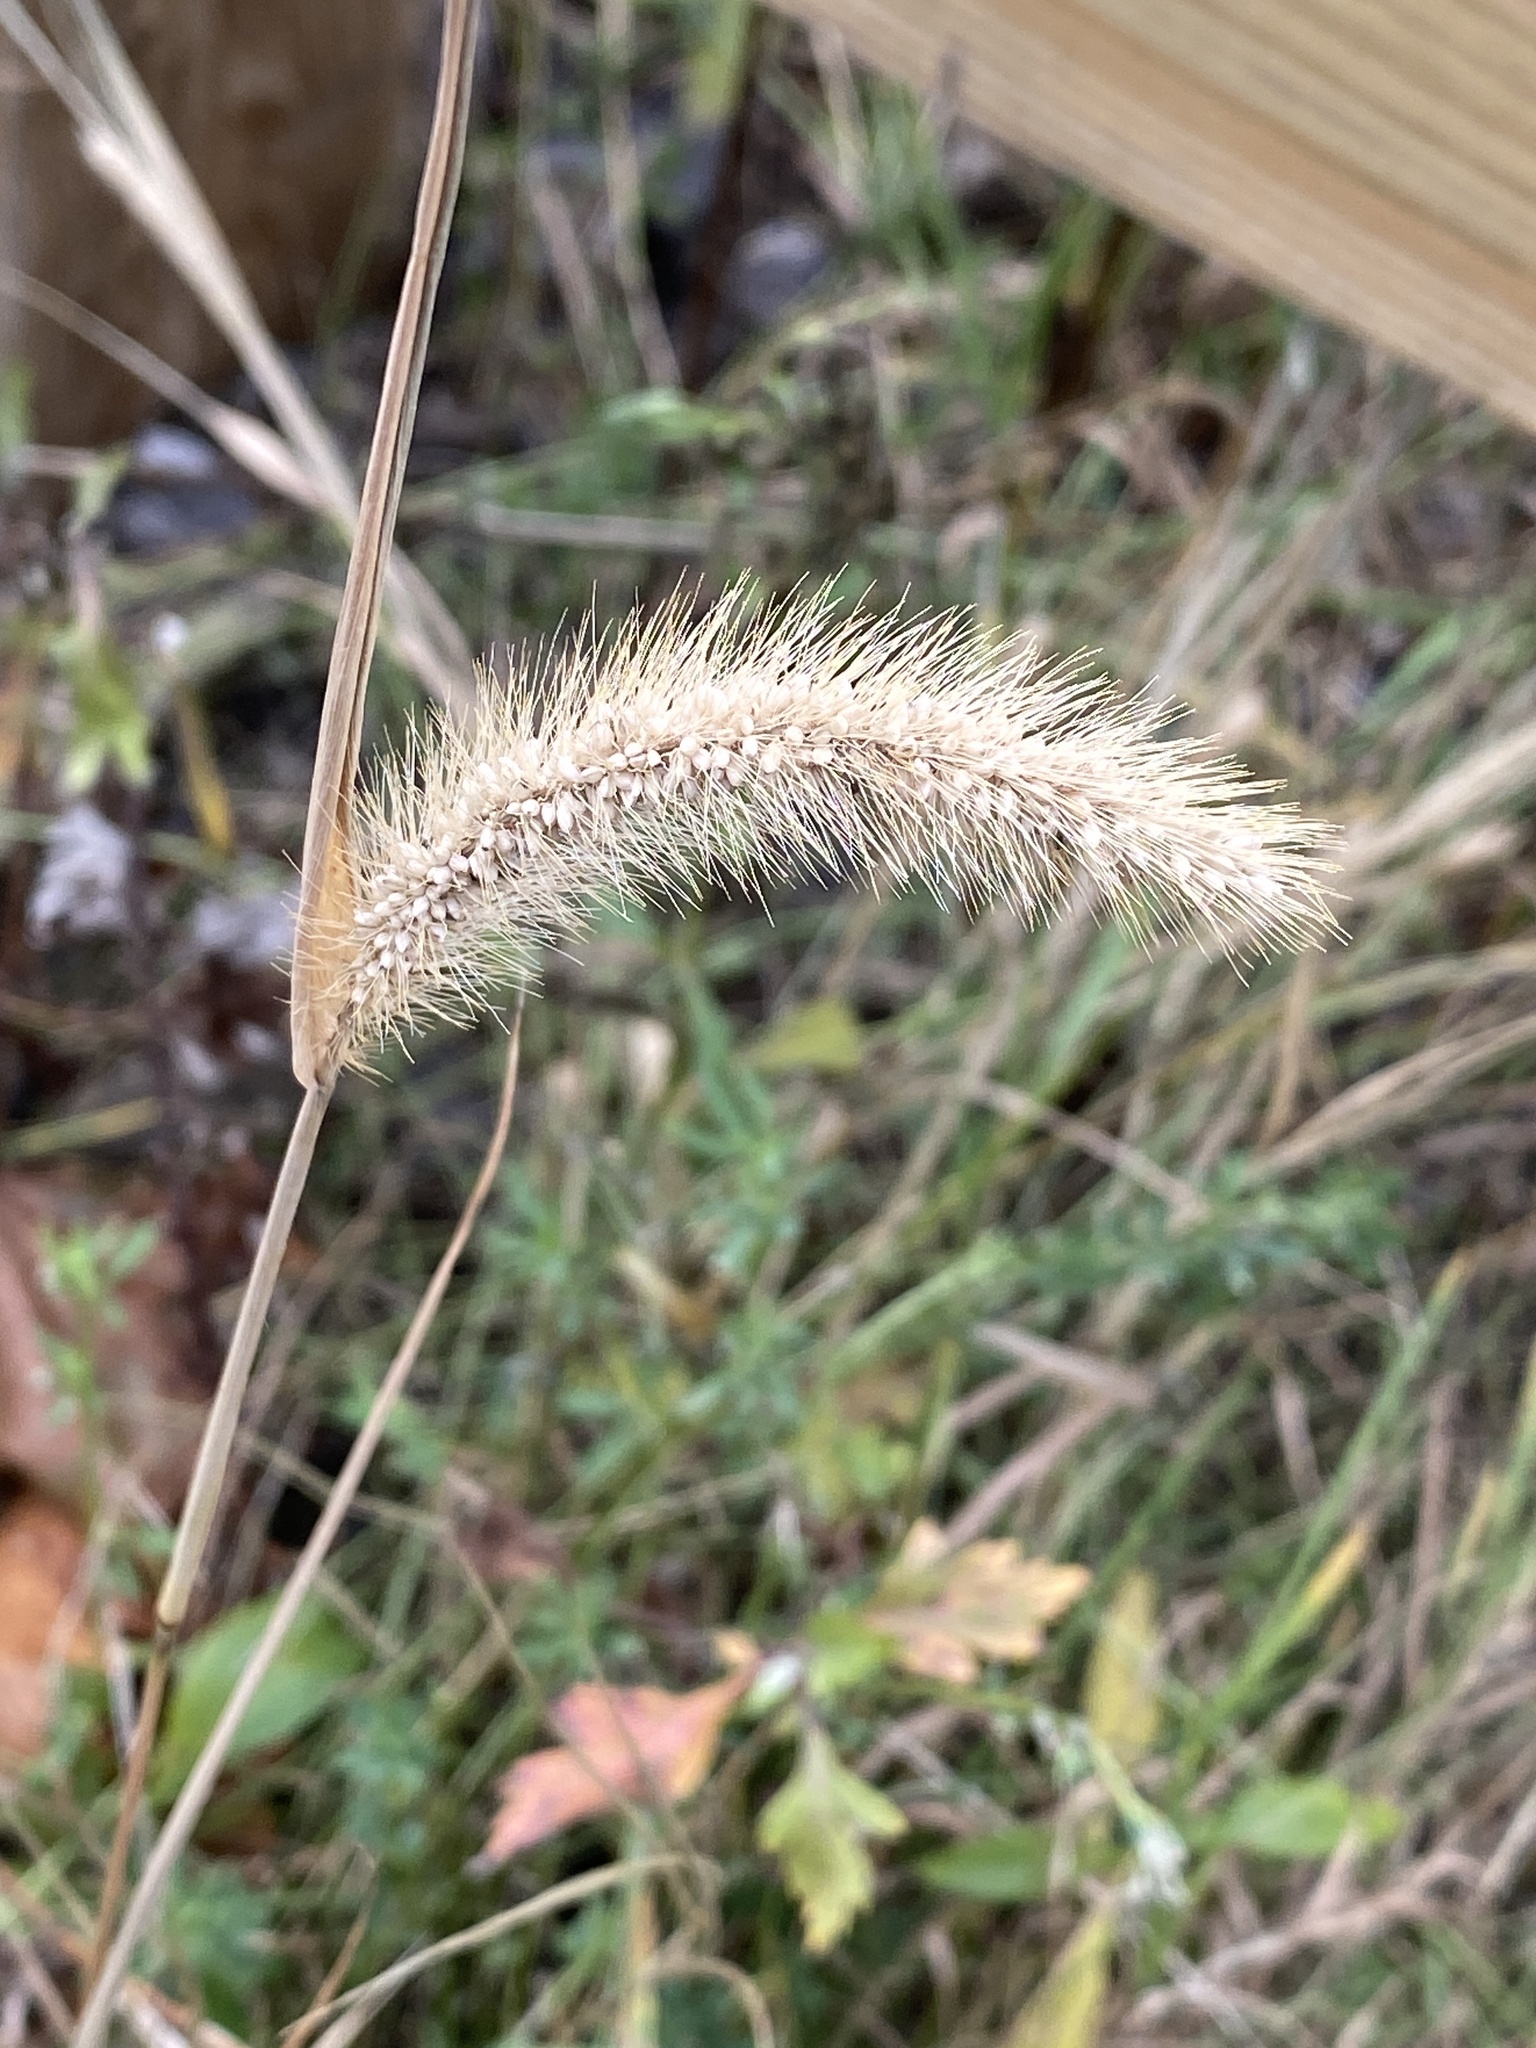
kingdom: Plantae
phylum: Tracheophyta
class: Liliopsida
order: Poales
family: Poaceae
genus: Setaria
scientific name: Setaria faberi
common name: Nodding bristle-grass
